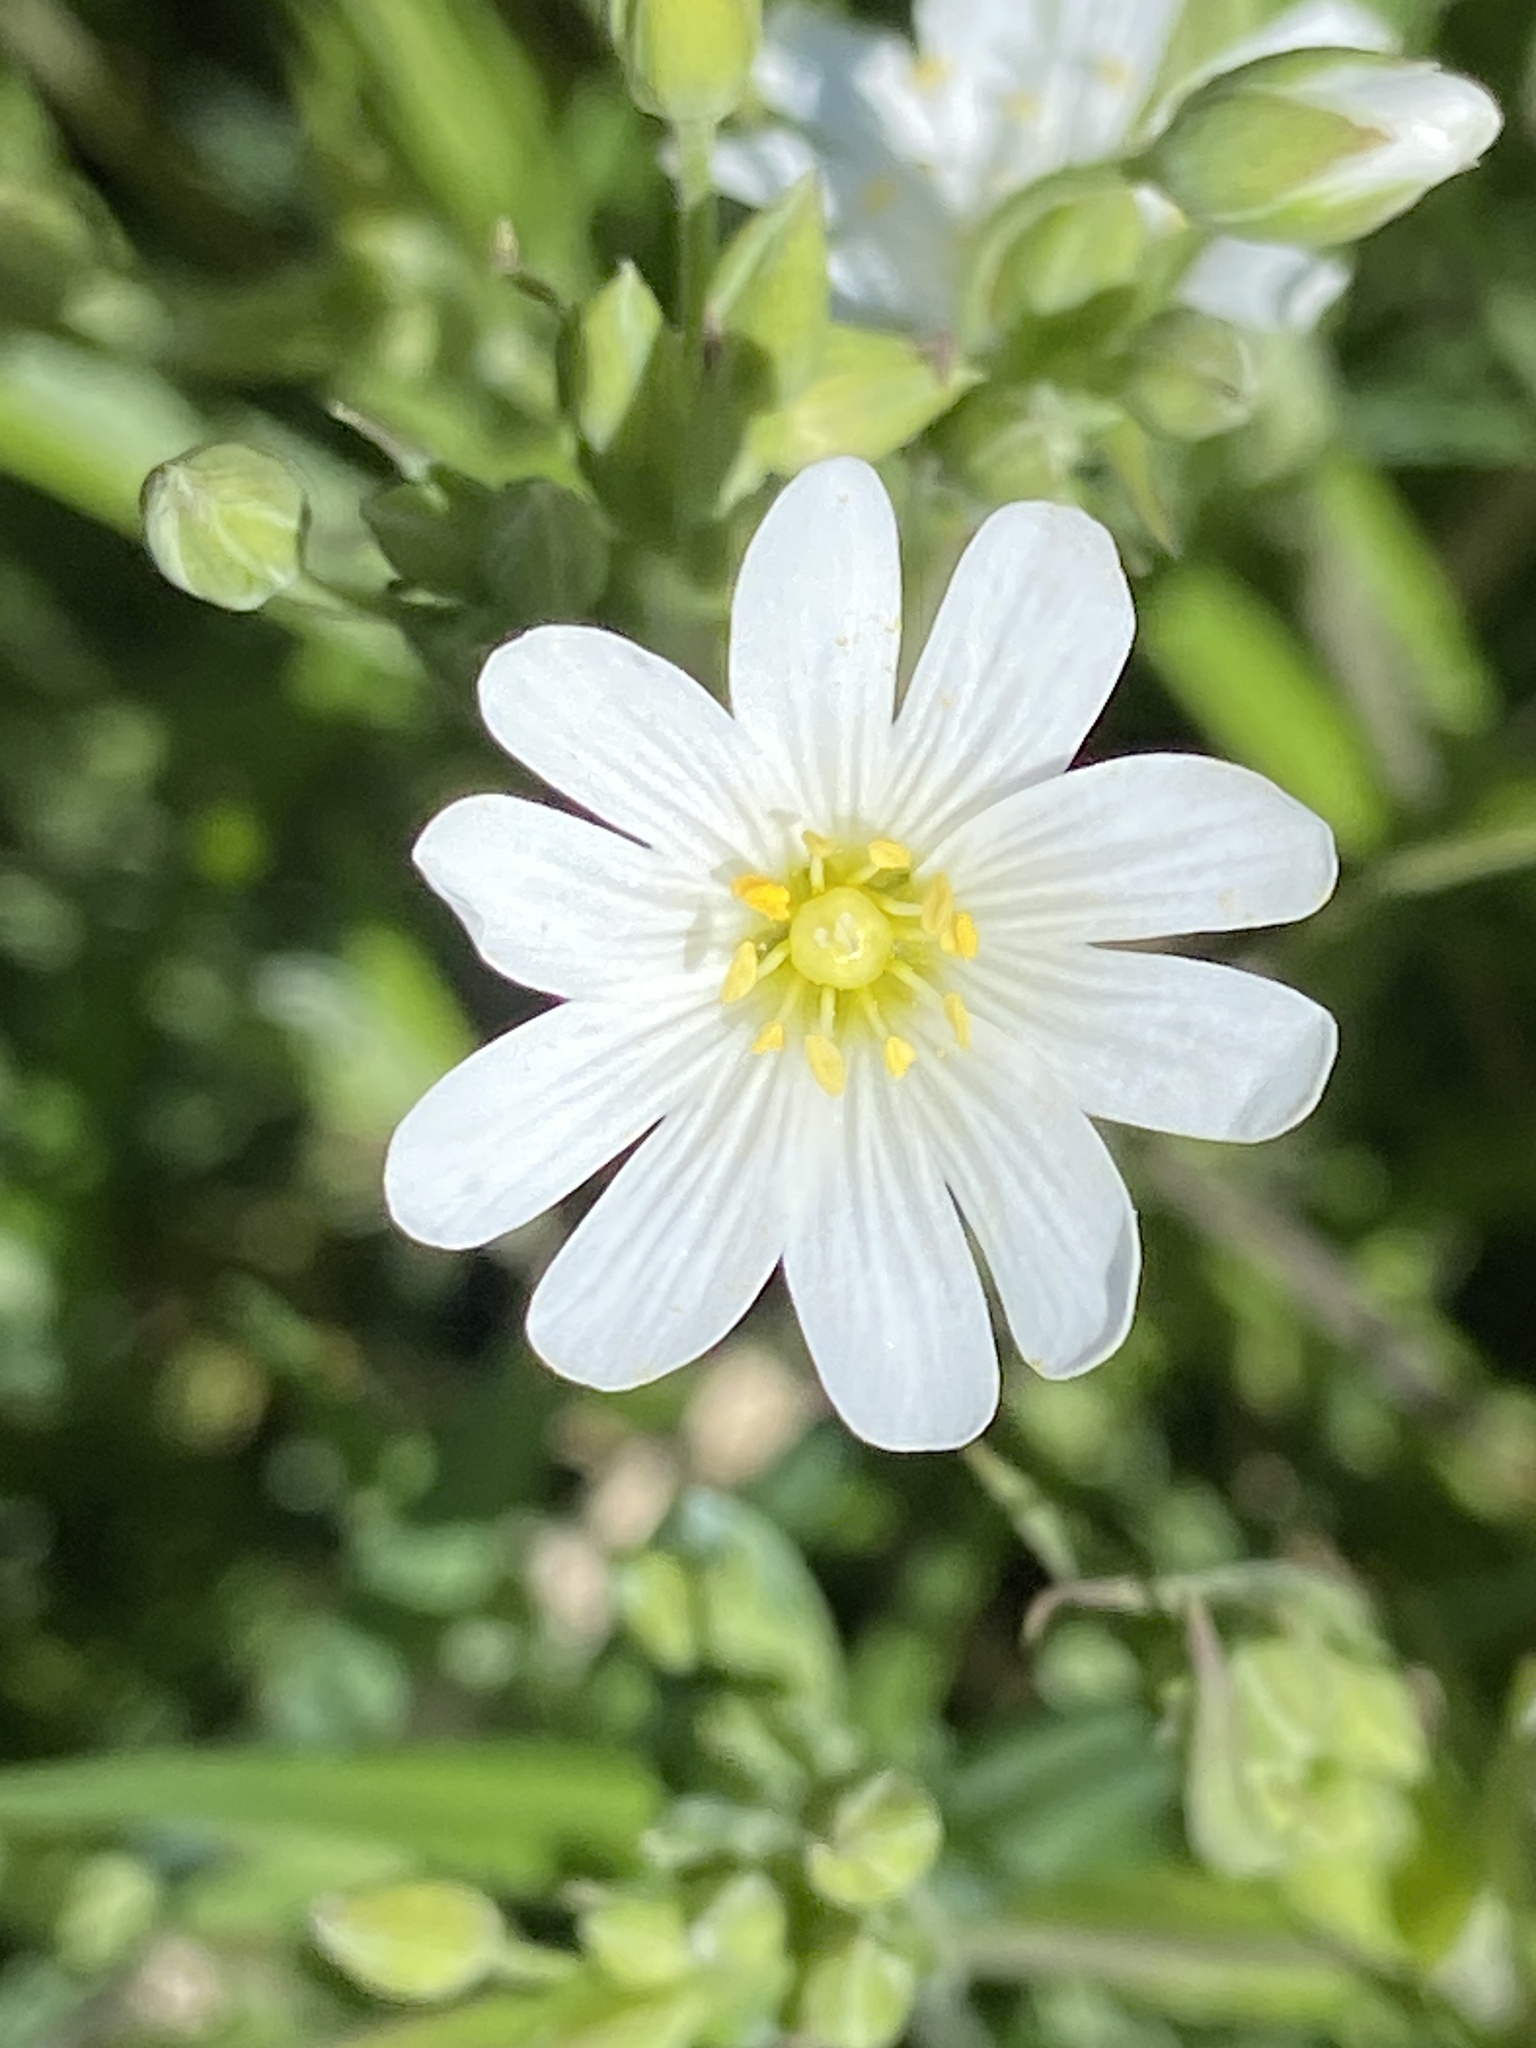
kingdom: Plantae
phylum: Tracheophyta
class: Magnoliopsida
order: Caryophyllales
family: Caryophyllaceae
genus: Rabelera
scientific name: Rabelera holostea
